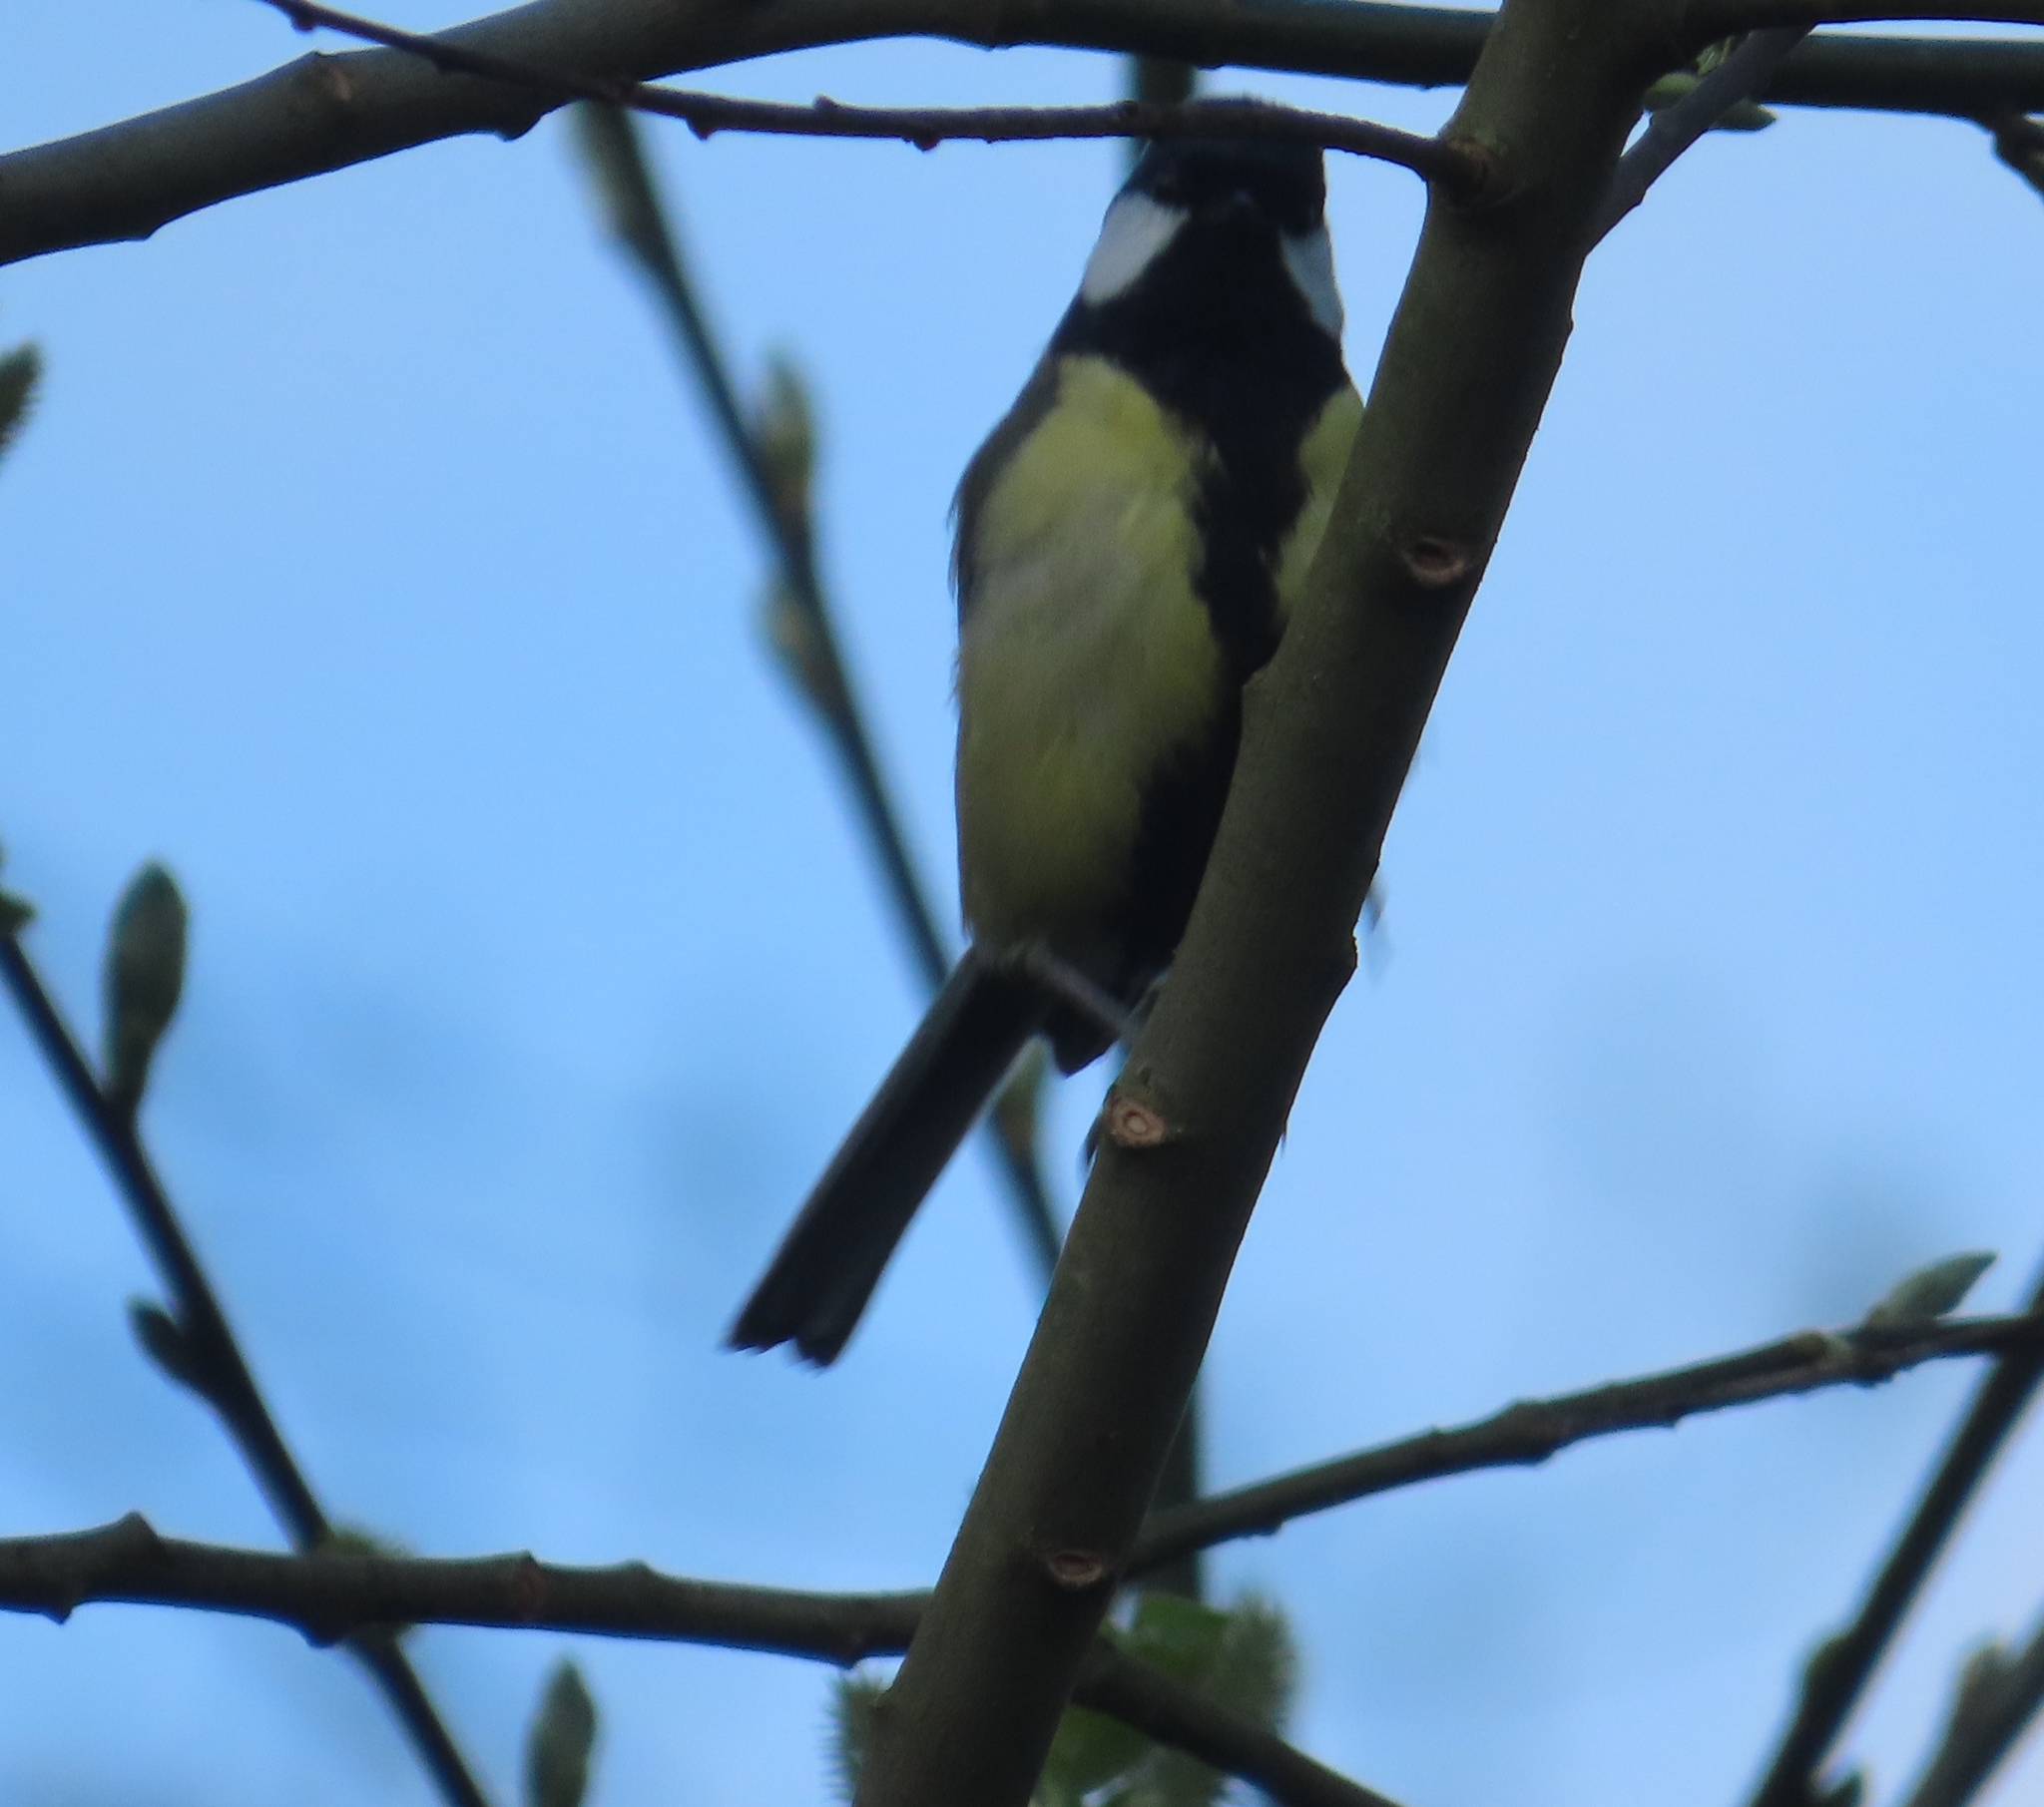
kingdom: Animalia
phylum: Chordata
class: Aves
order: Passeriformes
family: Paridae
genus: Parus
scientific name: Parus major
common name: Great tit
